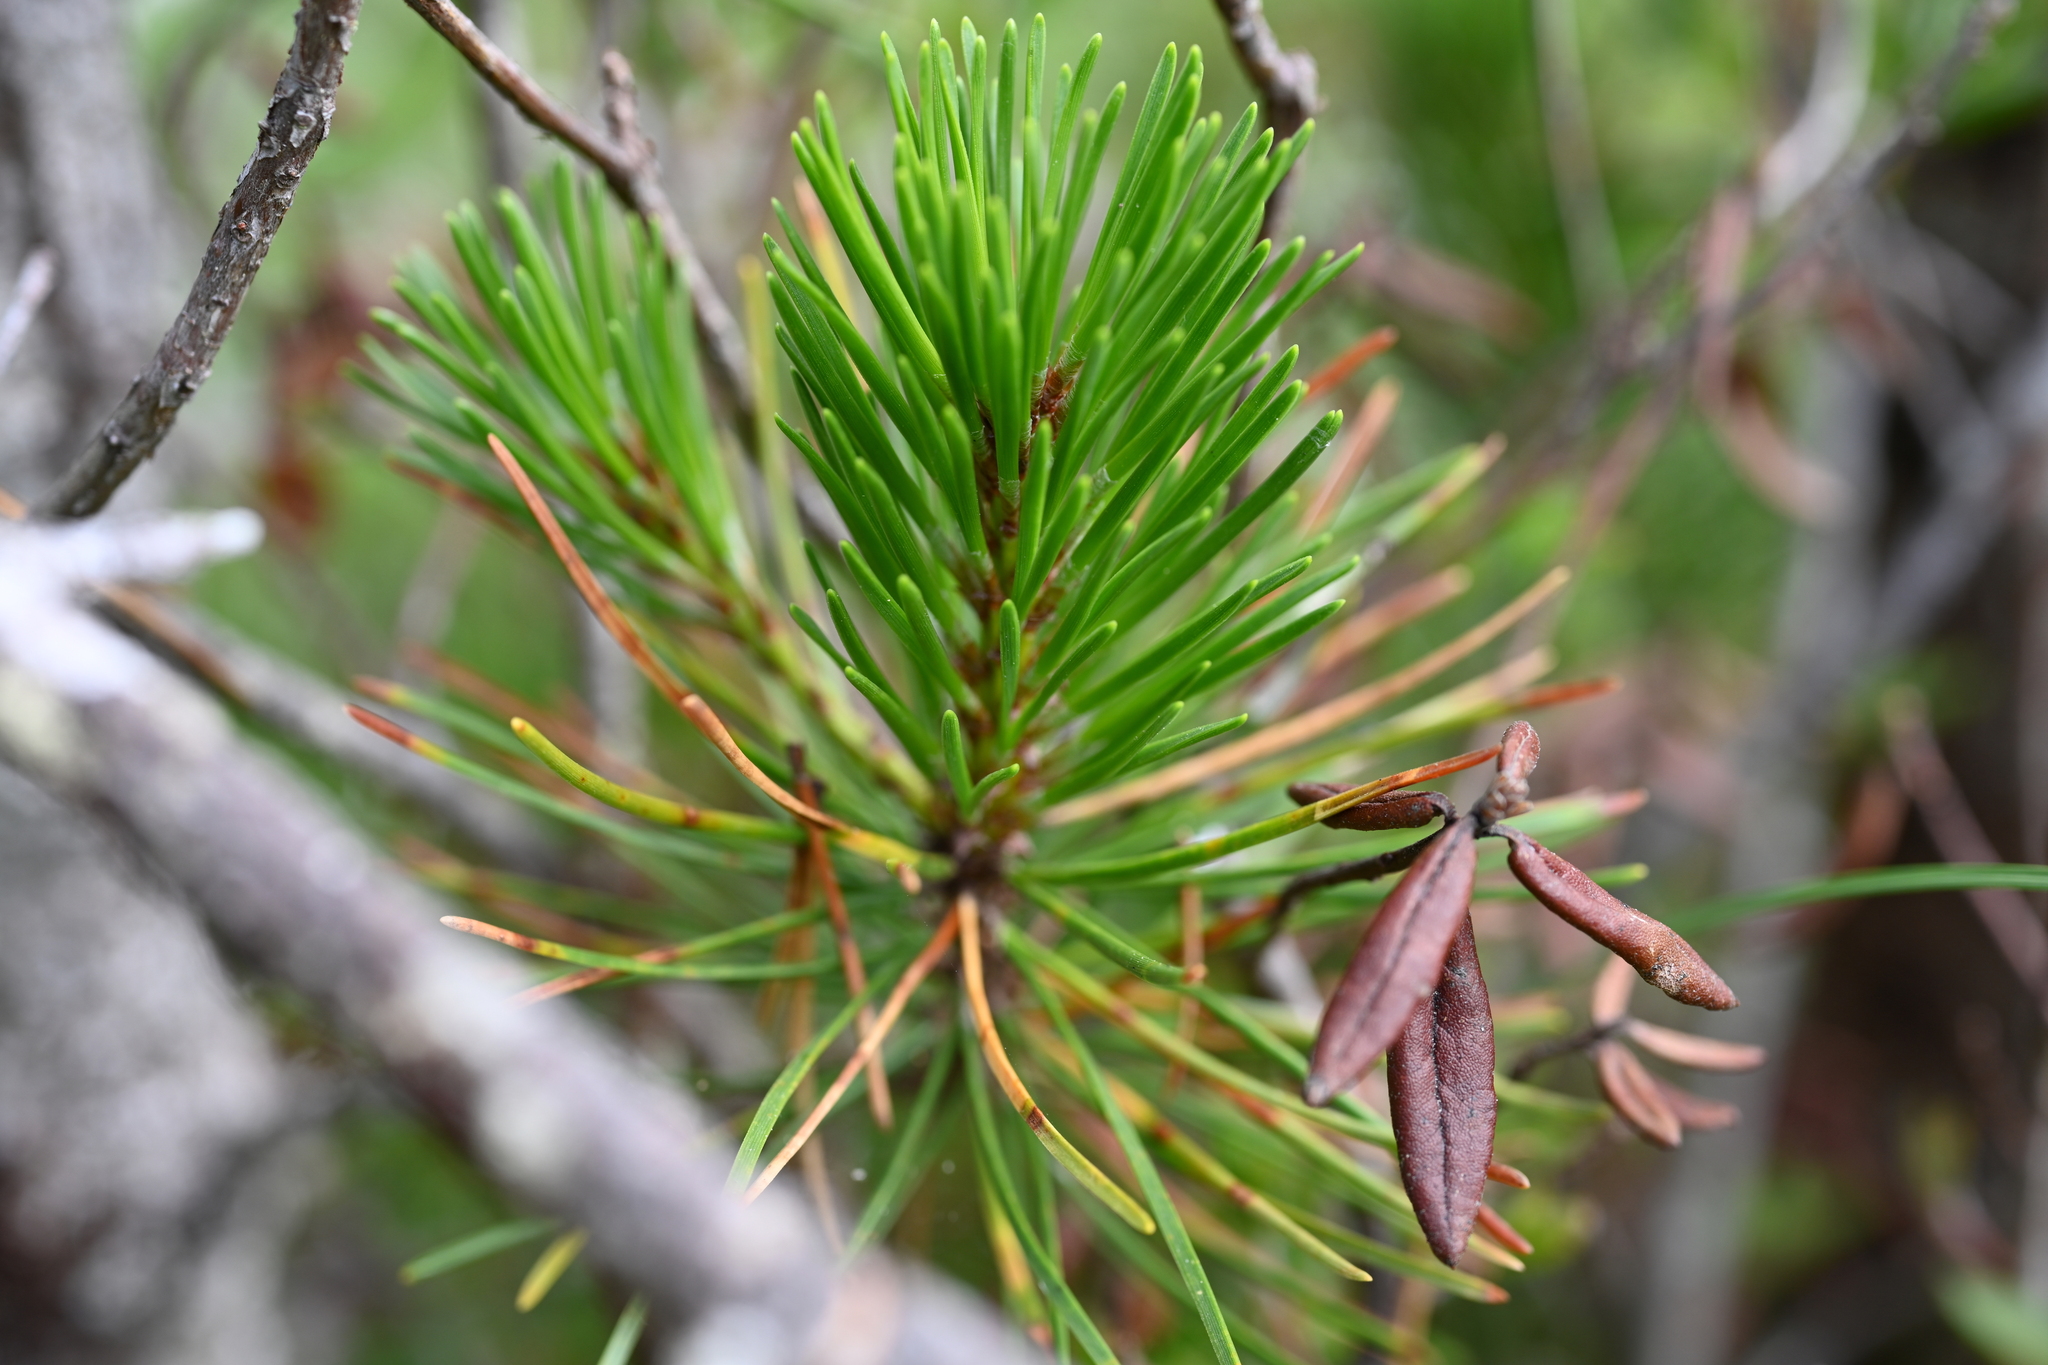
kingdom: Plantae
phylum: Tracheophyta
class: Pinopsida
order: Pinales
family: Pinaceae
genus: Pinus
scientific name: Pinus contorta
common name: Lodgepole pine
